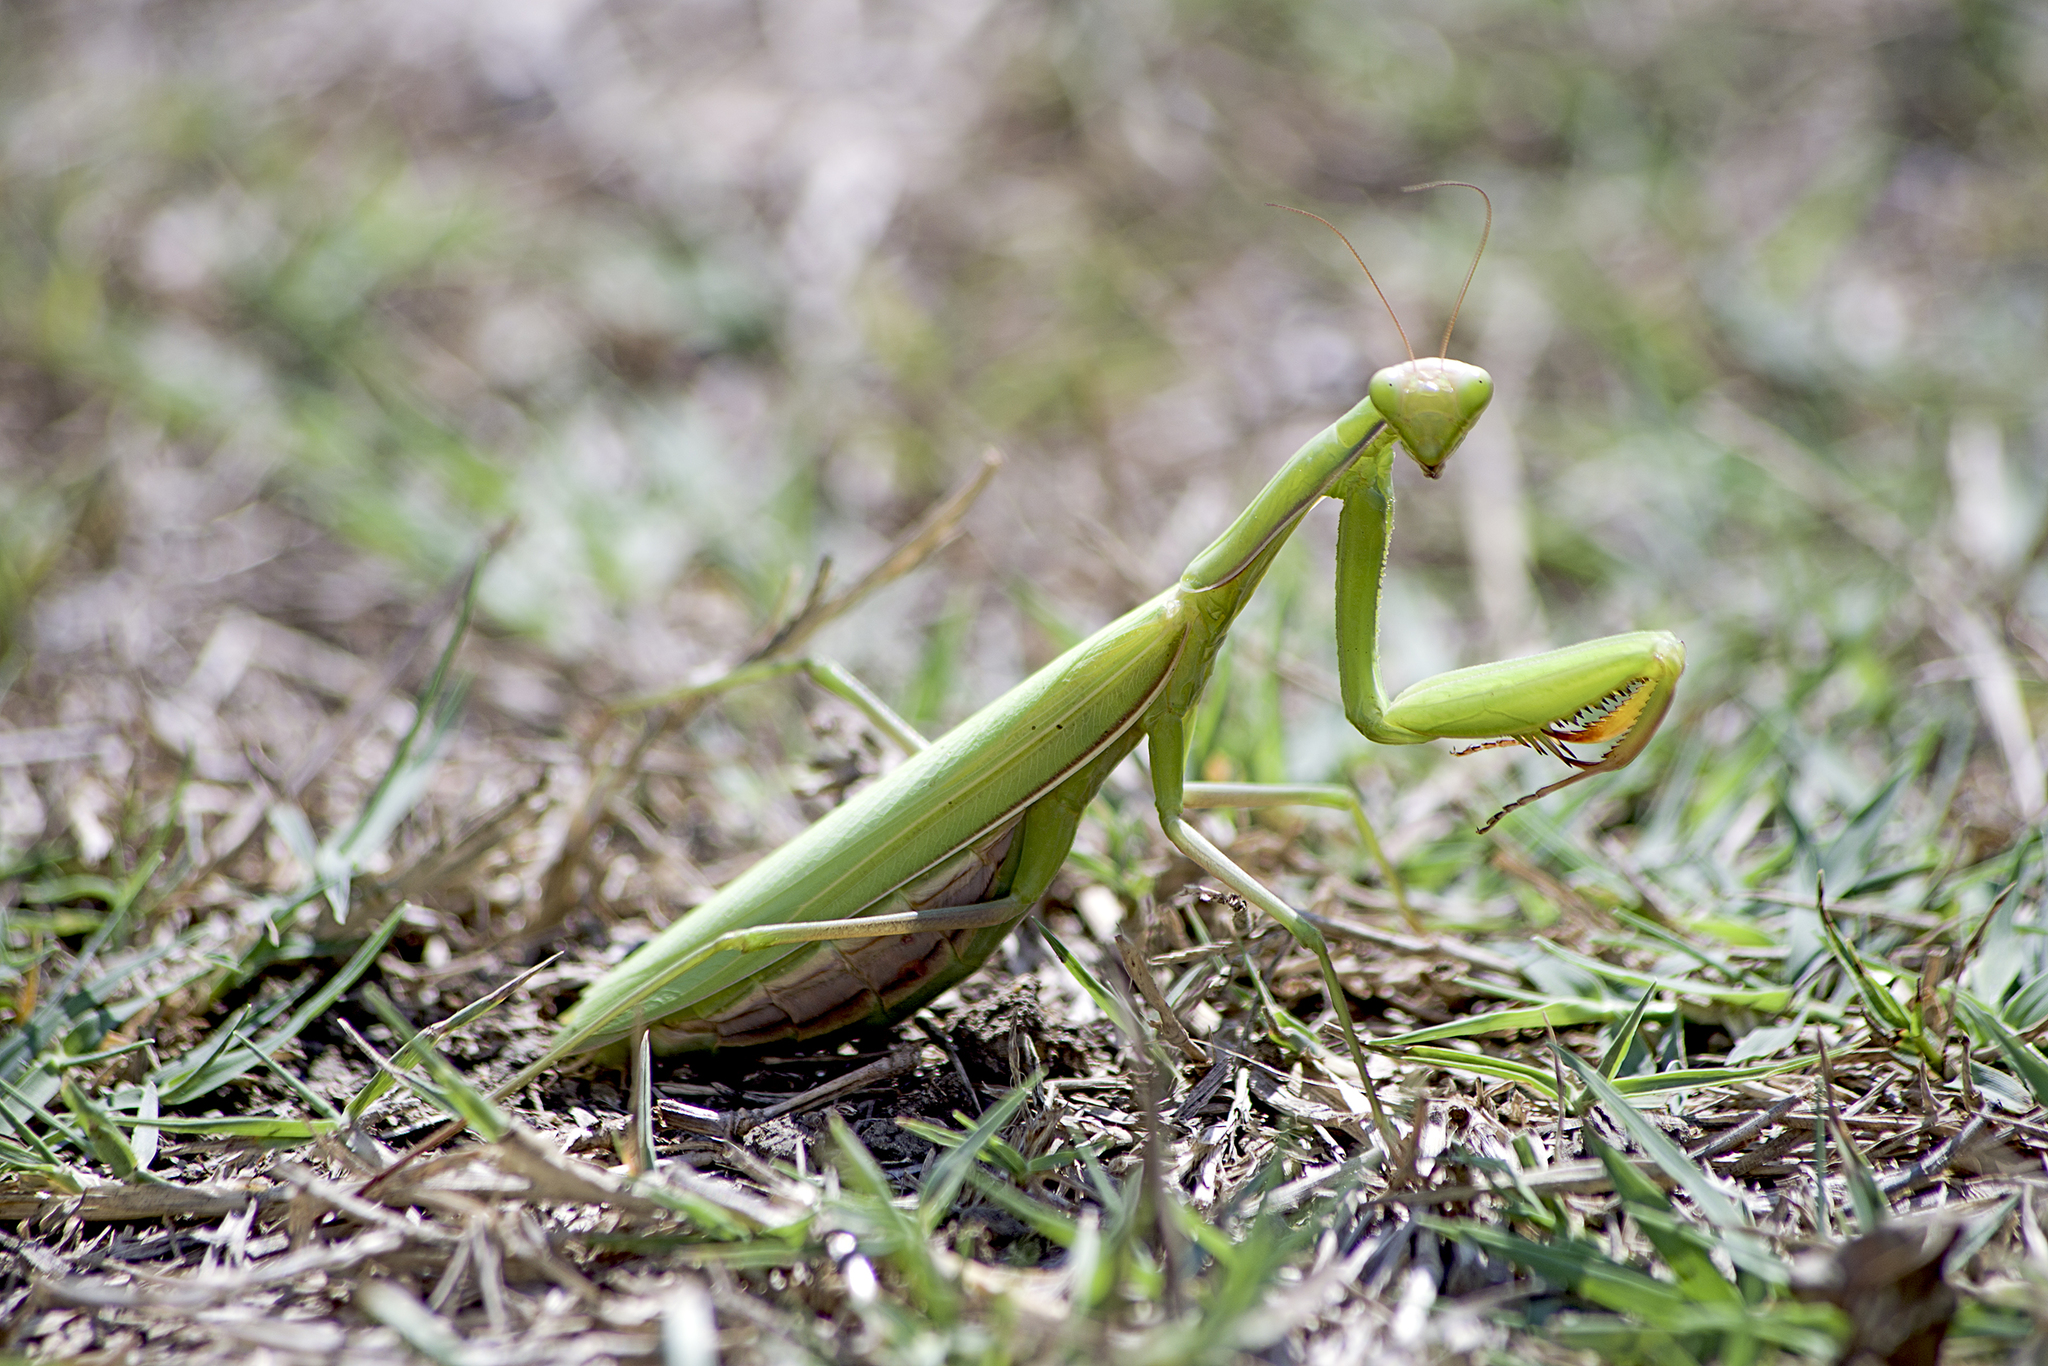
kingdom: Animalia
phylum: Arthropoda
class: Insecta
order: Mantodea
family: Mantidae
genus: Mantis
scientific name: Mantis religiosa
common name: Praying mantis
